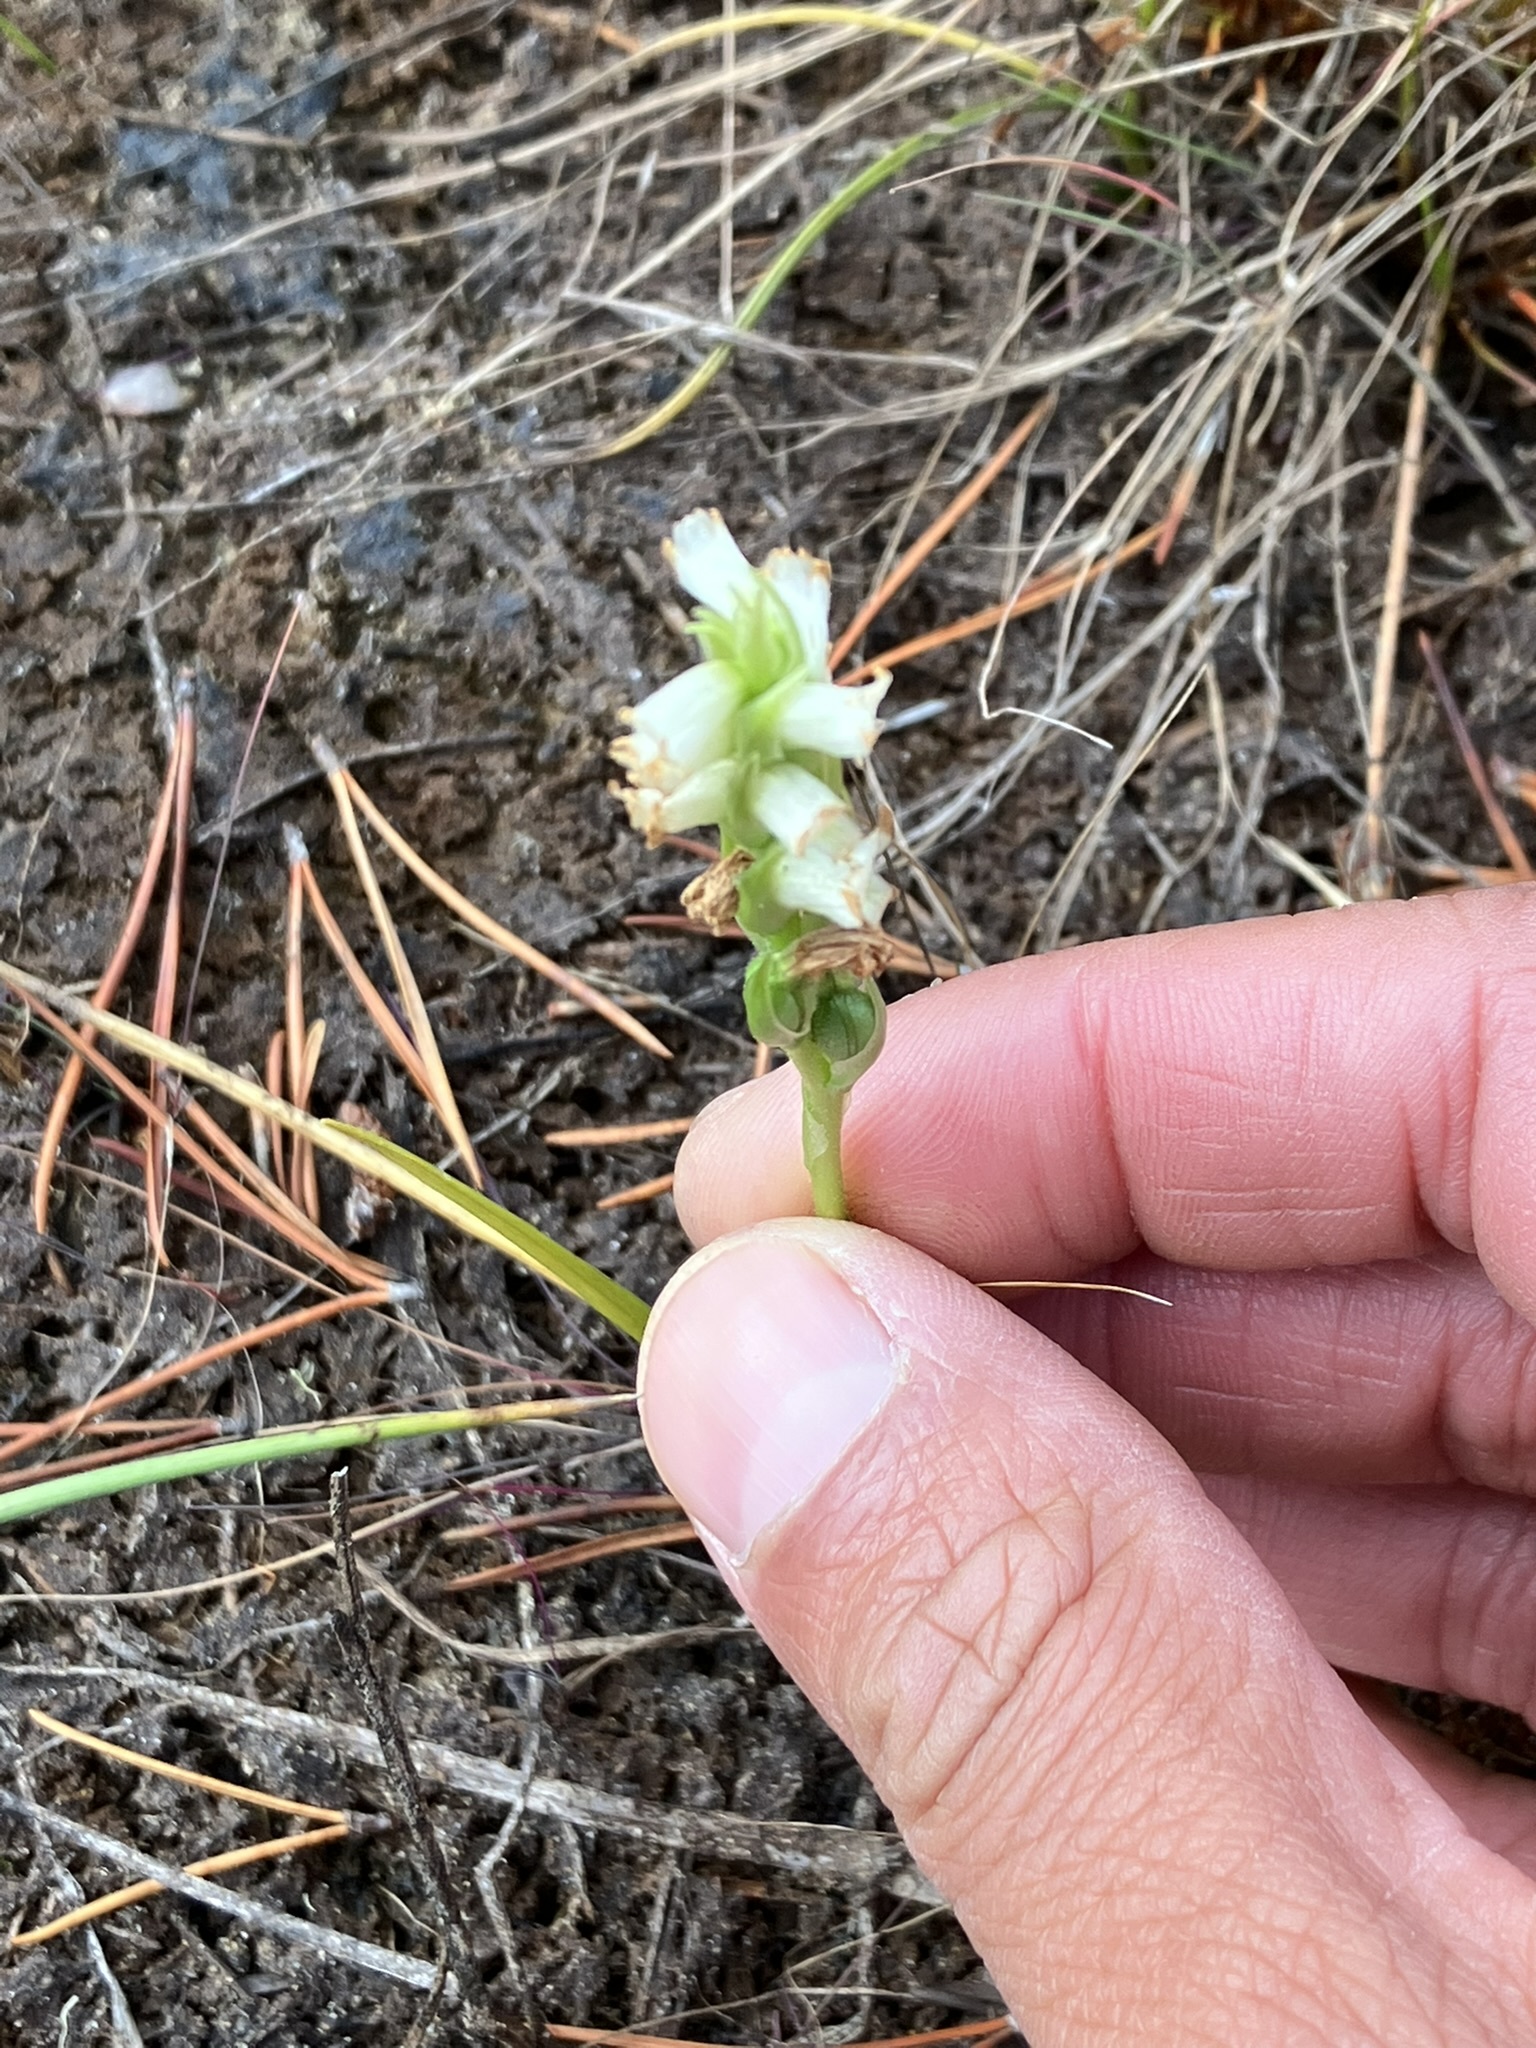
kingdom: Plantae
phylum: Tracheophyta
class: Liliopsida
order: Asparagales
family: Orchidaceae
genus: Spiranthes
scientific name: Spiranthes romanzoffiana
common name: Irish lady's-tresses
